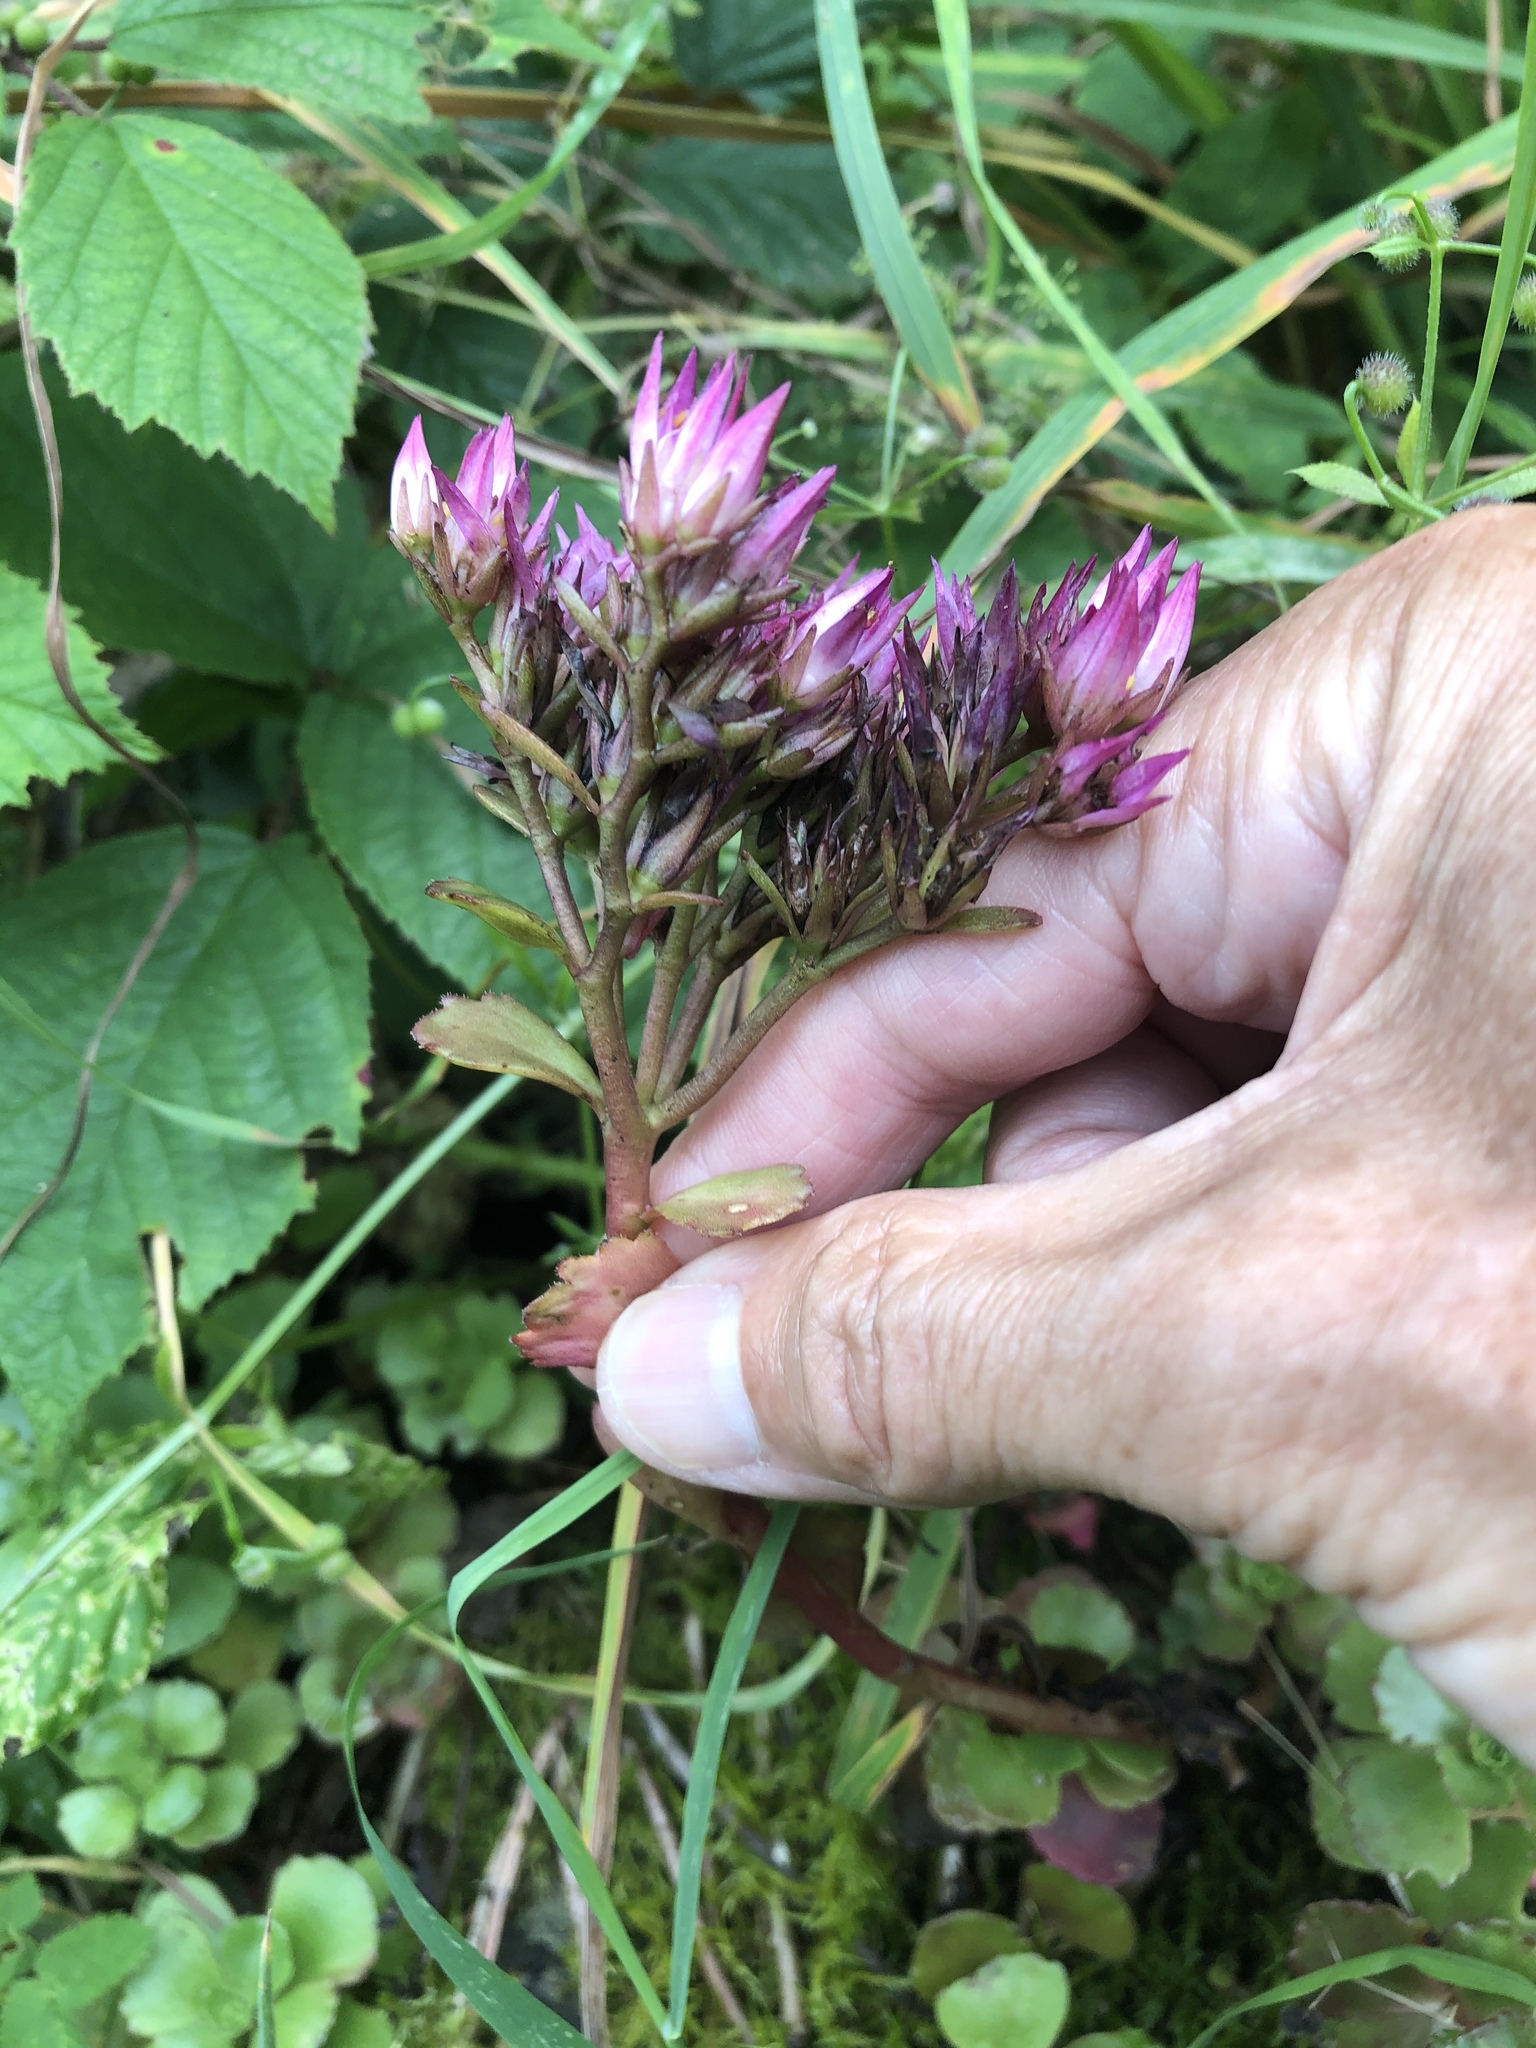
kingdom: Plantae
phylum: Tracheophyta
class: Magnoliopsida
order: Saxifragales
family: Crassulaceae
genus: Phedimus
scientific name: Phedimus spurius
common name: Caucasian stonecrop
